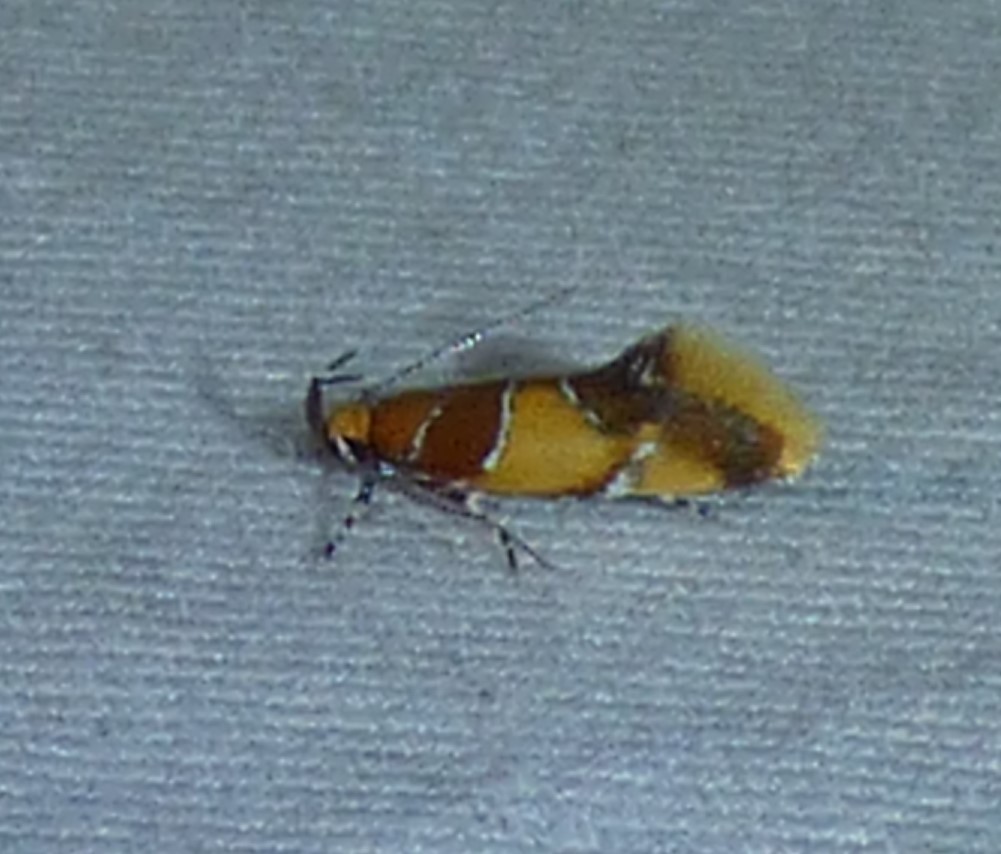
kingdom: Animalia
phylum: Arthropoda
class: Insecta
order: Lepidoptera
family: Oecophoridae
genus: Callima
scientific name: Callima argenticinctella
